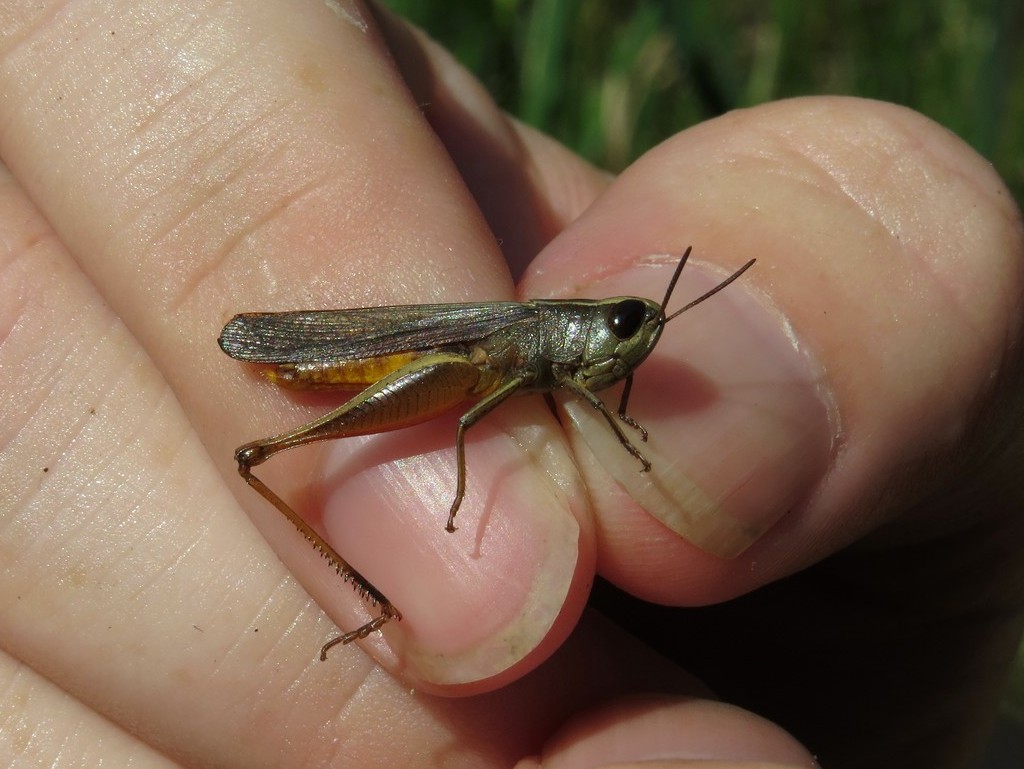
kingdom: Animalia
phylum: Arthropoda
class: Insecta
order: Orthoptera
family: Acrididae
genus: Amblytropidia
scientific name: Amblytropidia mysteca
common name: Brown winter grasshopper
